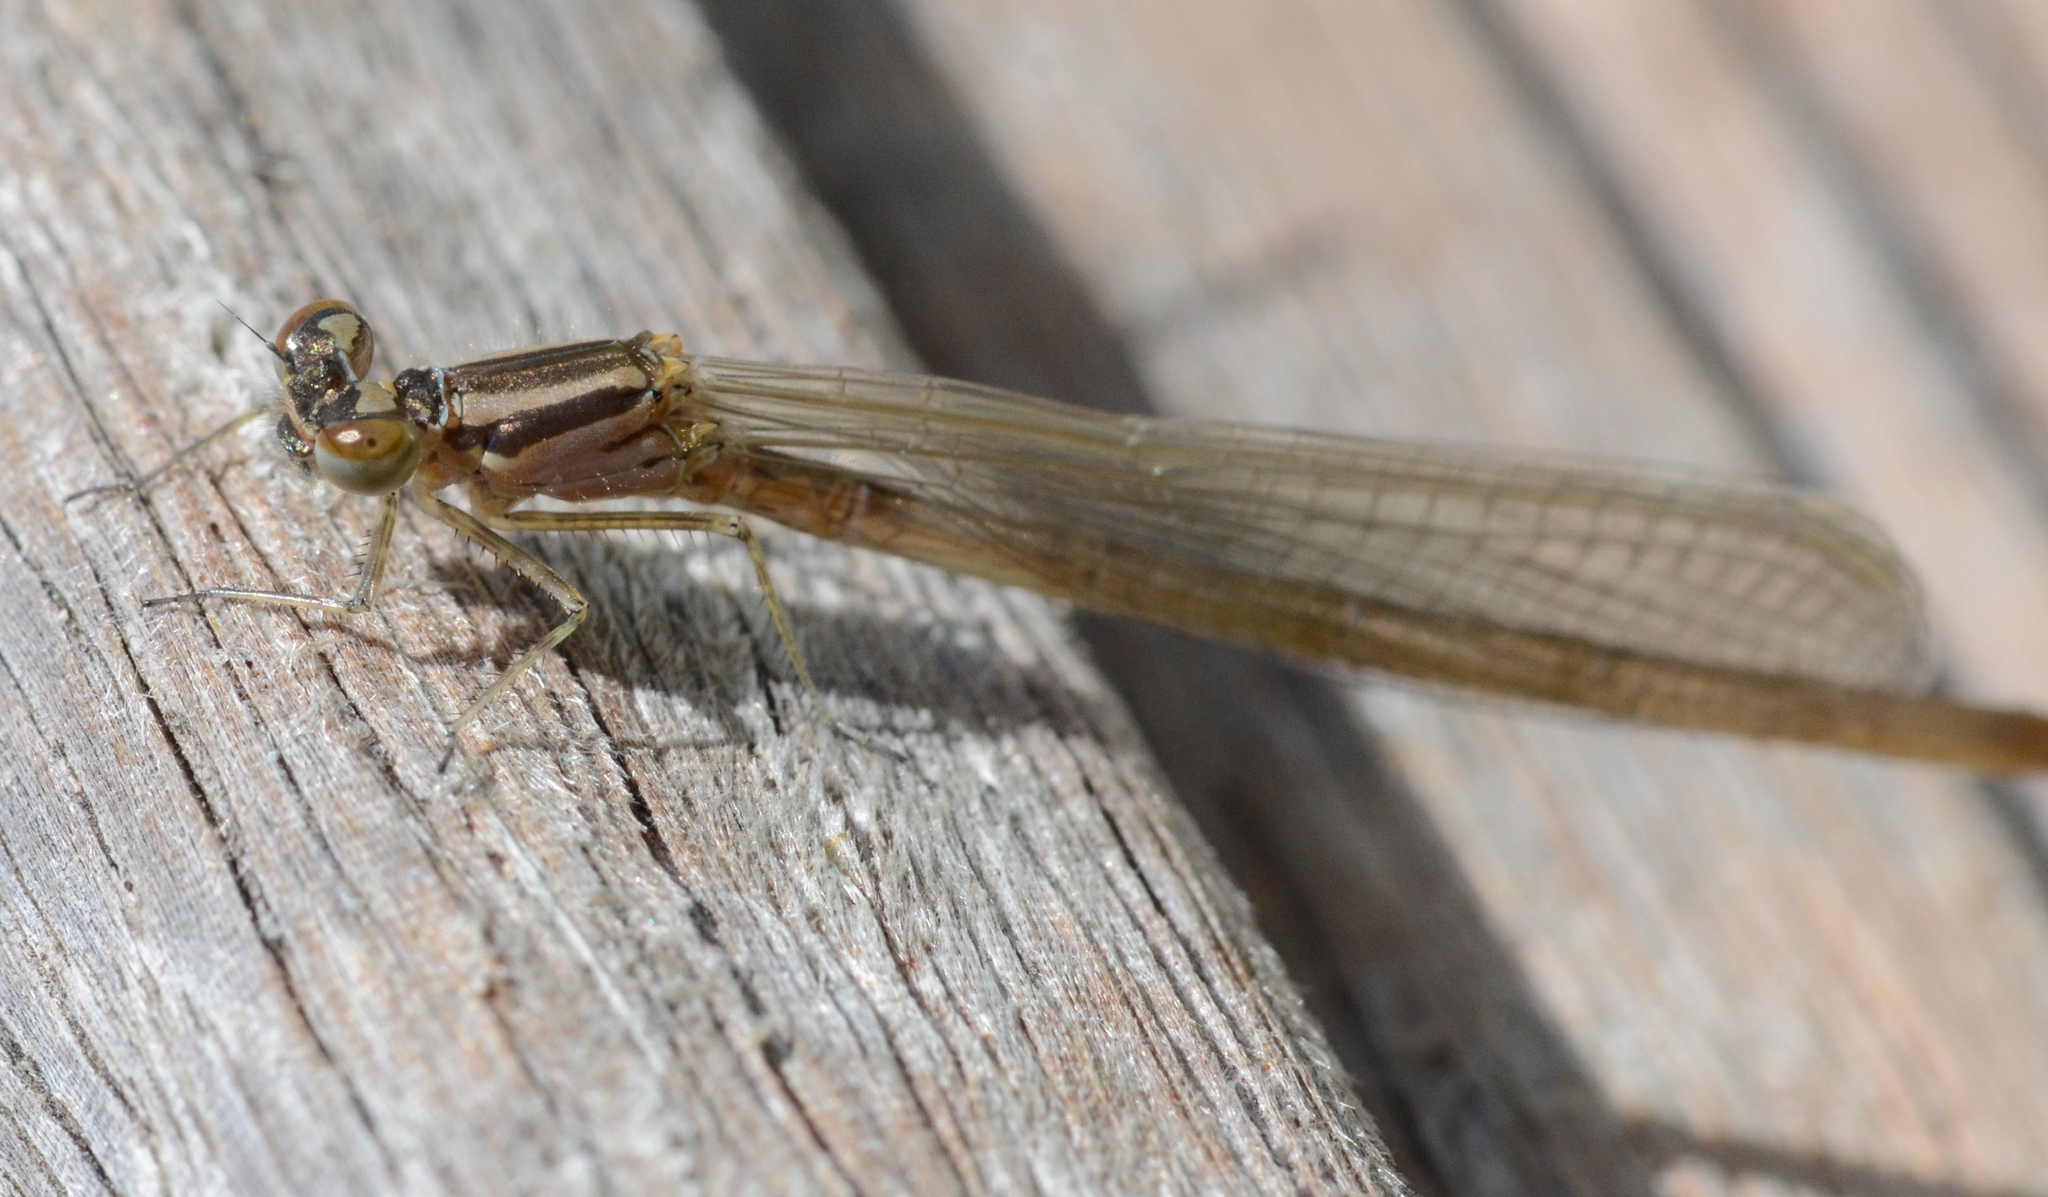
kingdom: Animalia
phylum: Arthropoda
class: Insecta
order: Odonata
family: Coenagrionidae
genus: Coenagrion
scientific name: Coenagrion puella
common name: Azure damselfly
